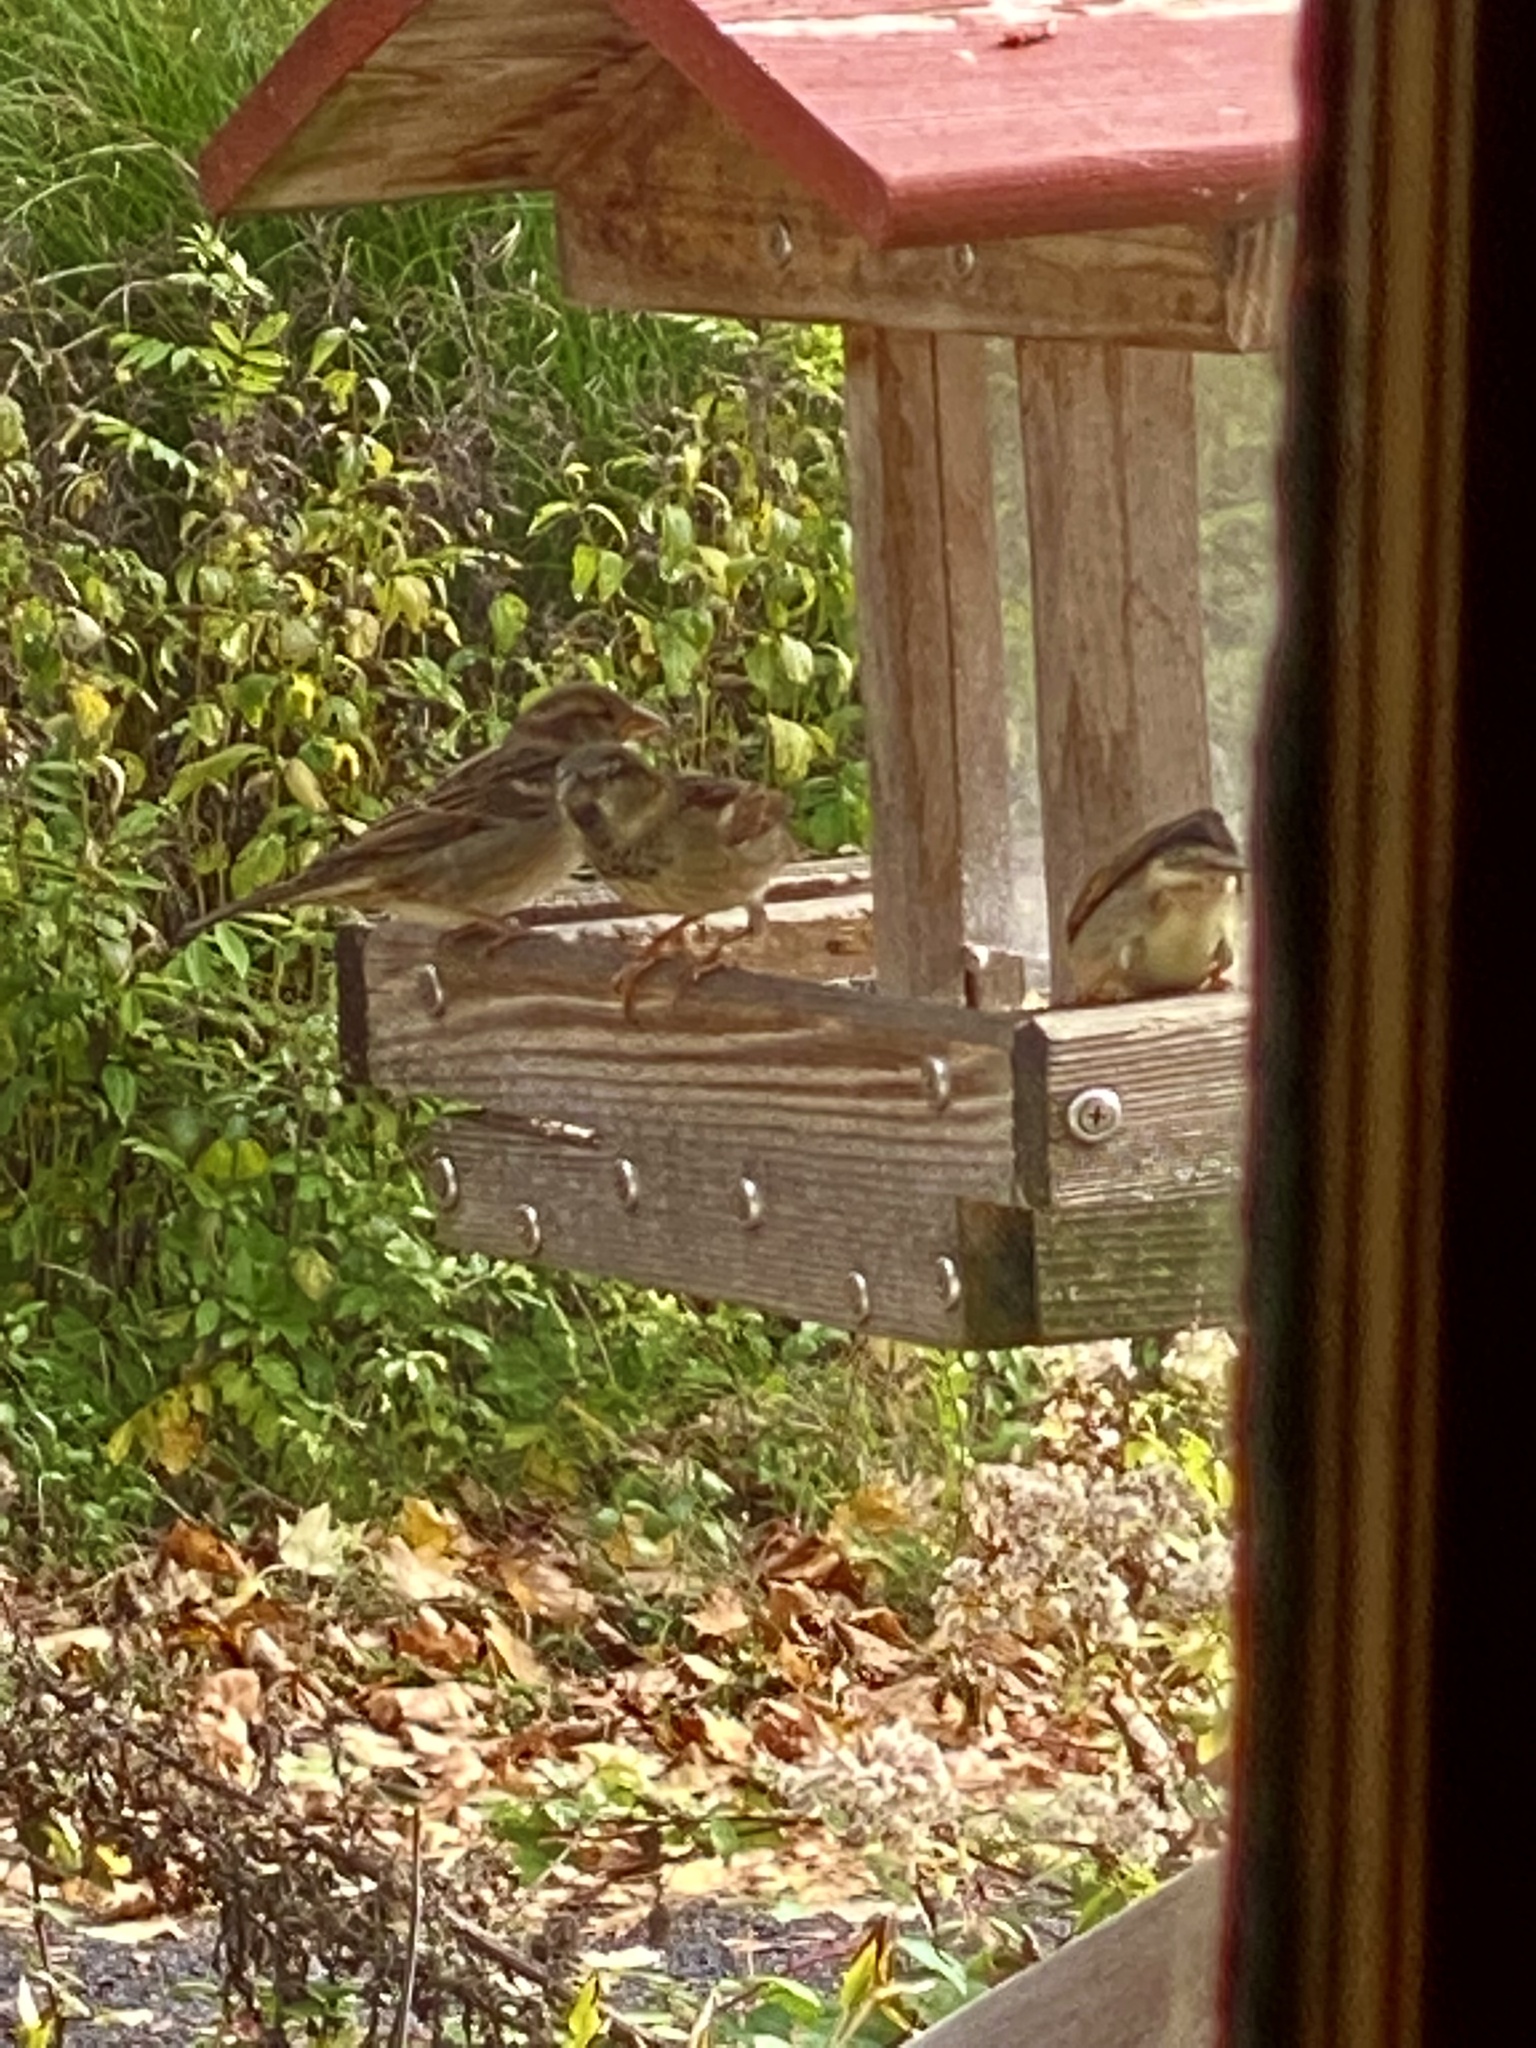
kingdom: Animalia
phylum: Chordata
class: Aves
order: Passeriformes
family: Passeridae
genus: Passer
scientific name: Passer domesticus
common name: House sparrow
